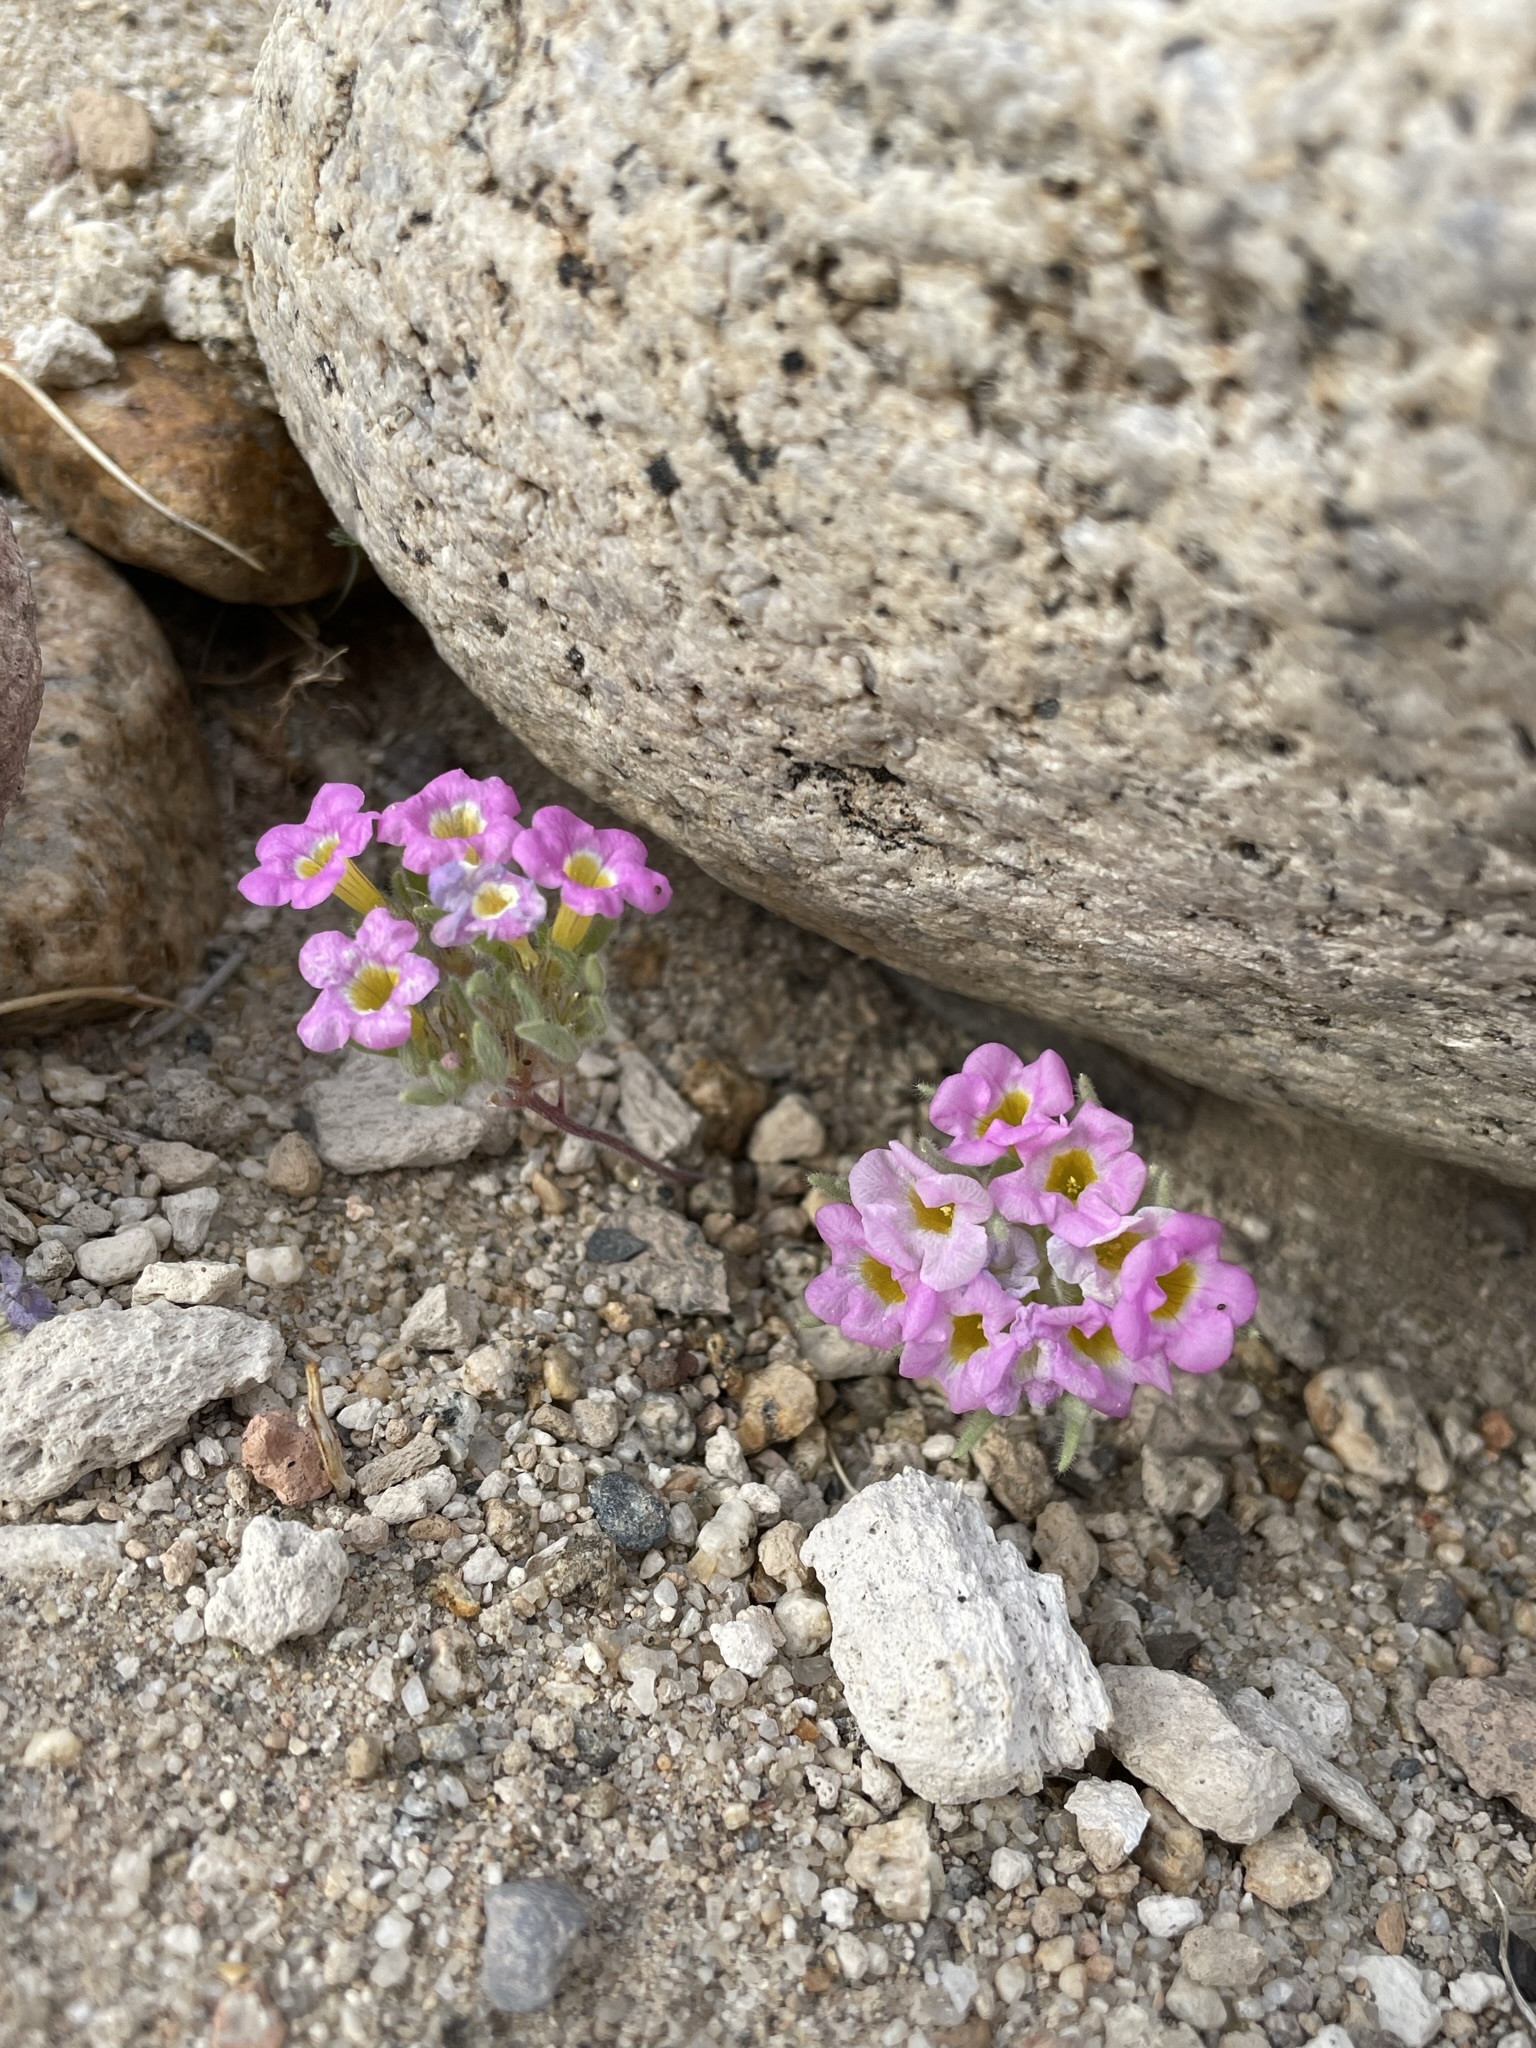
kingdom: Plantae
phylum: Tracheophyta
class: Magnoliopsida
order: Boraginales
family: Namaceae
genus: Nama
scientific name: Nama aretioides
